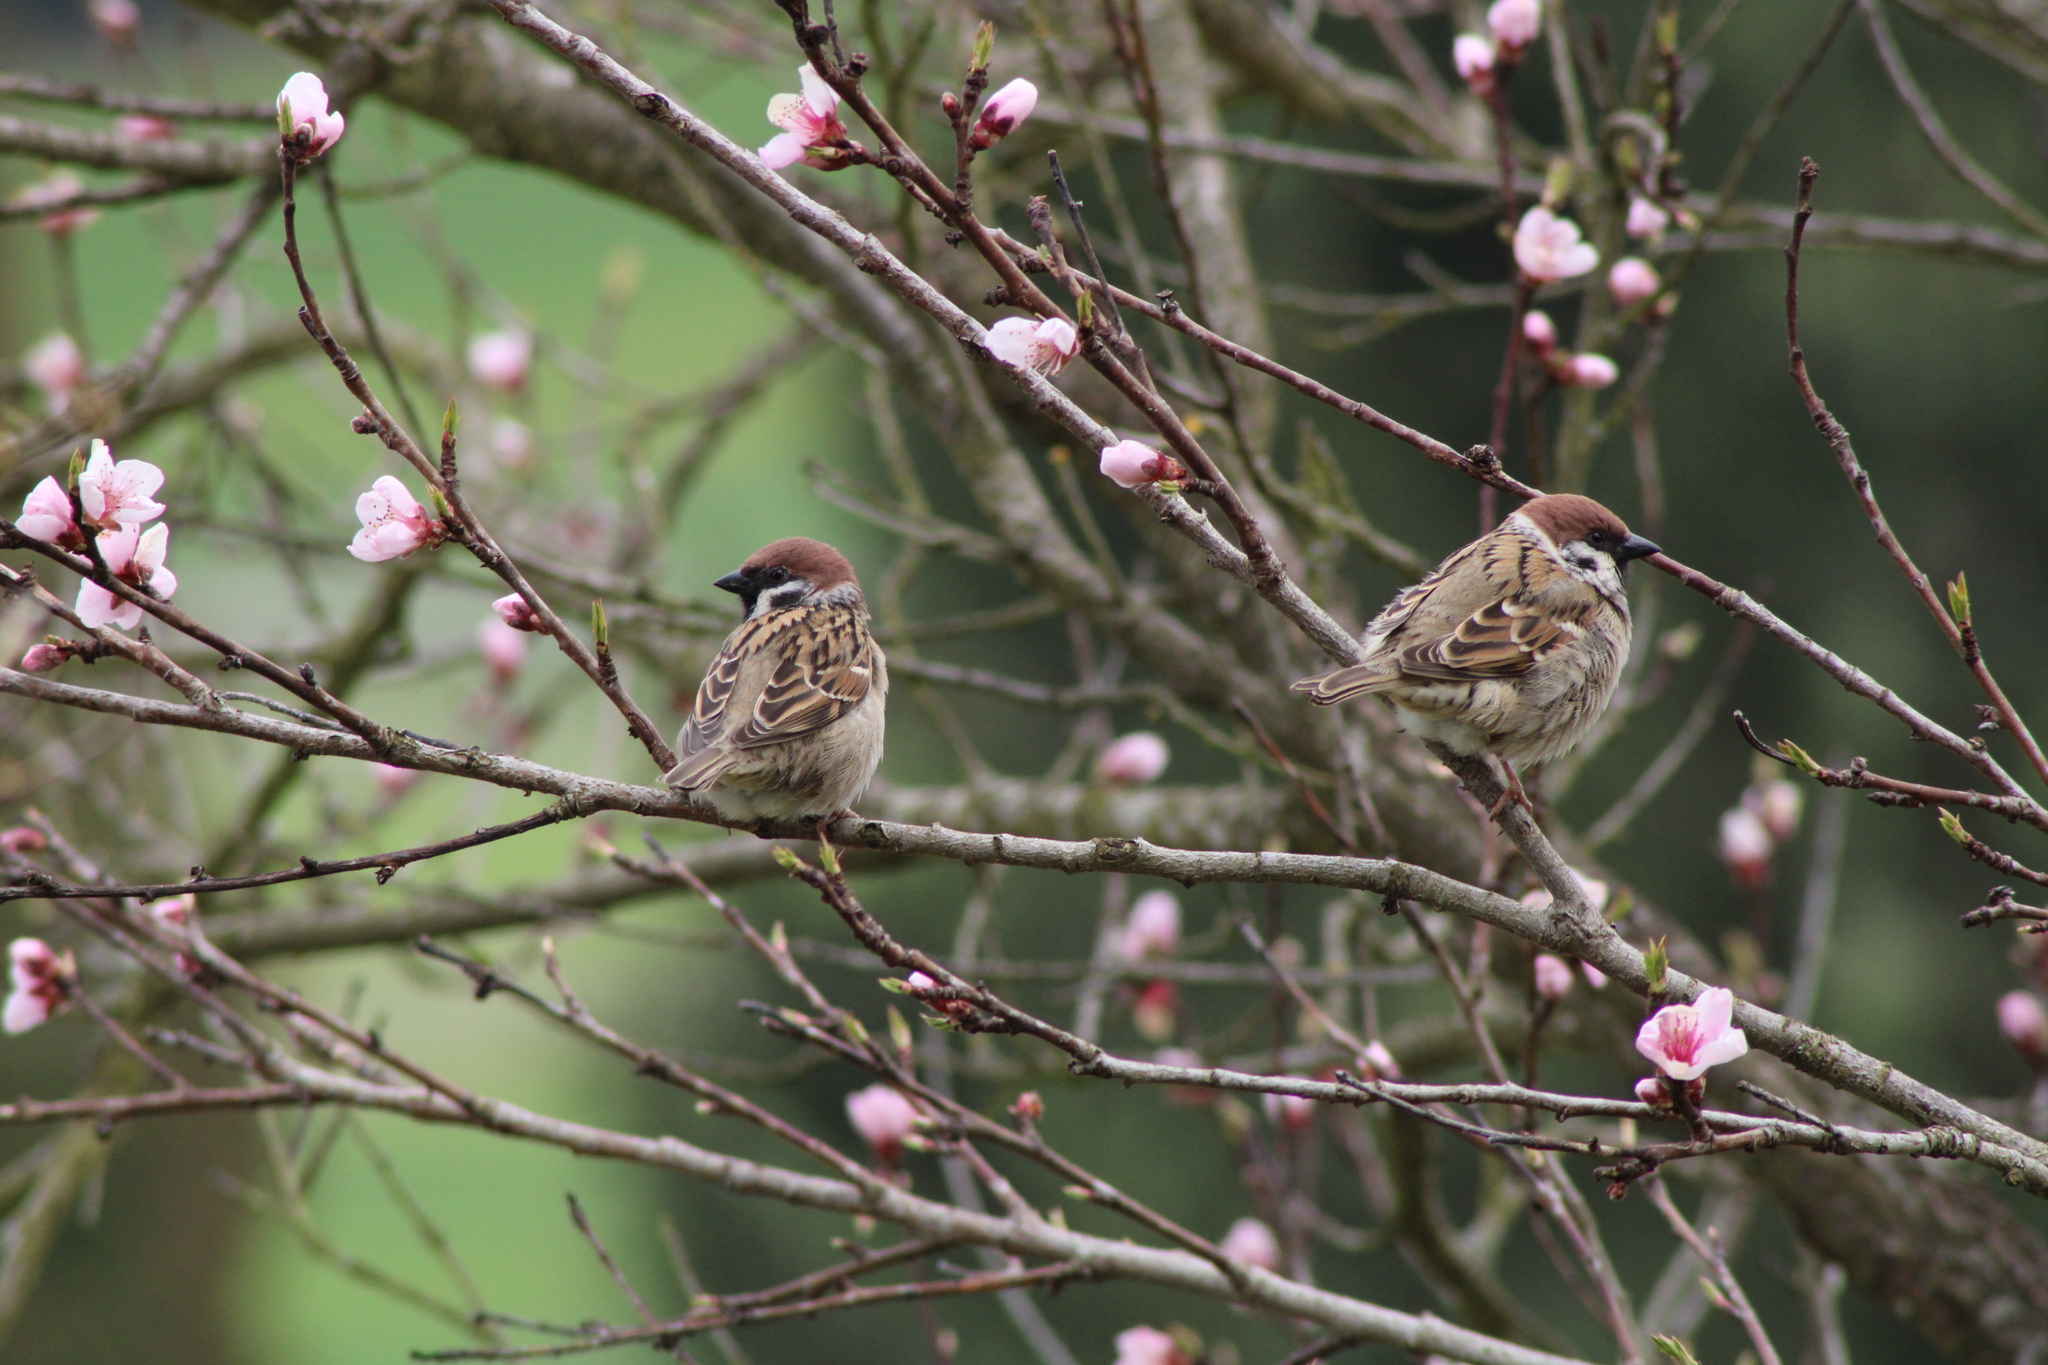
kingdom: Animalia
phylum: Chordata
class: Aves
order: Passeriformes
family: Passeridae
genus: Passer
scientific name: Passer montanus
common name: Eurasian tree sparrow
